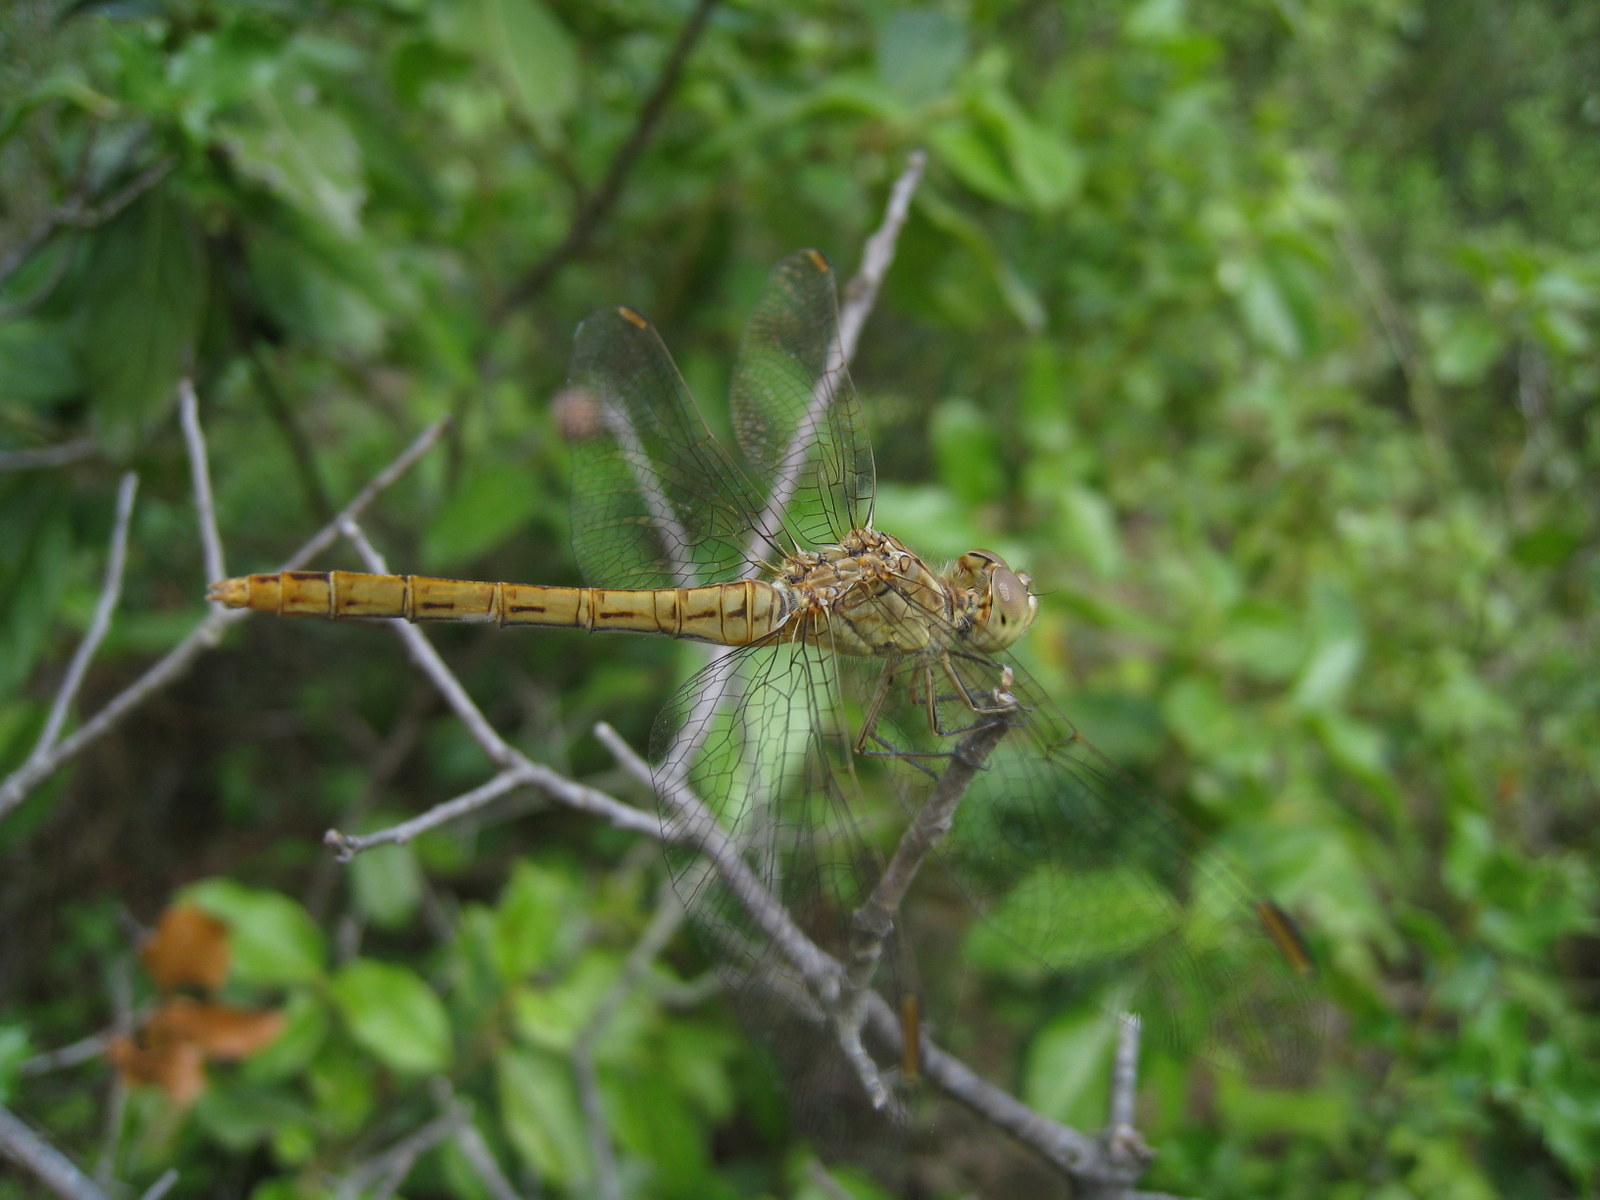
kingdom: Animalia
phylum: Arthropoda
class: Insecta
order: Odonata
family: Libellulidae
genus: Sympetrum
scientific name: Sympetrum meridionale
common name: Southern darter
